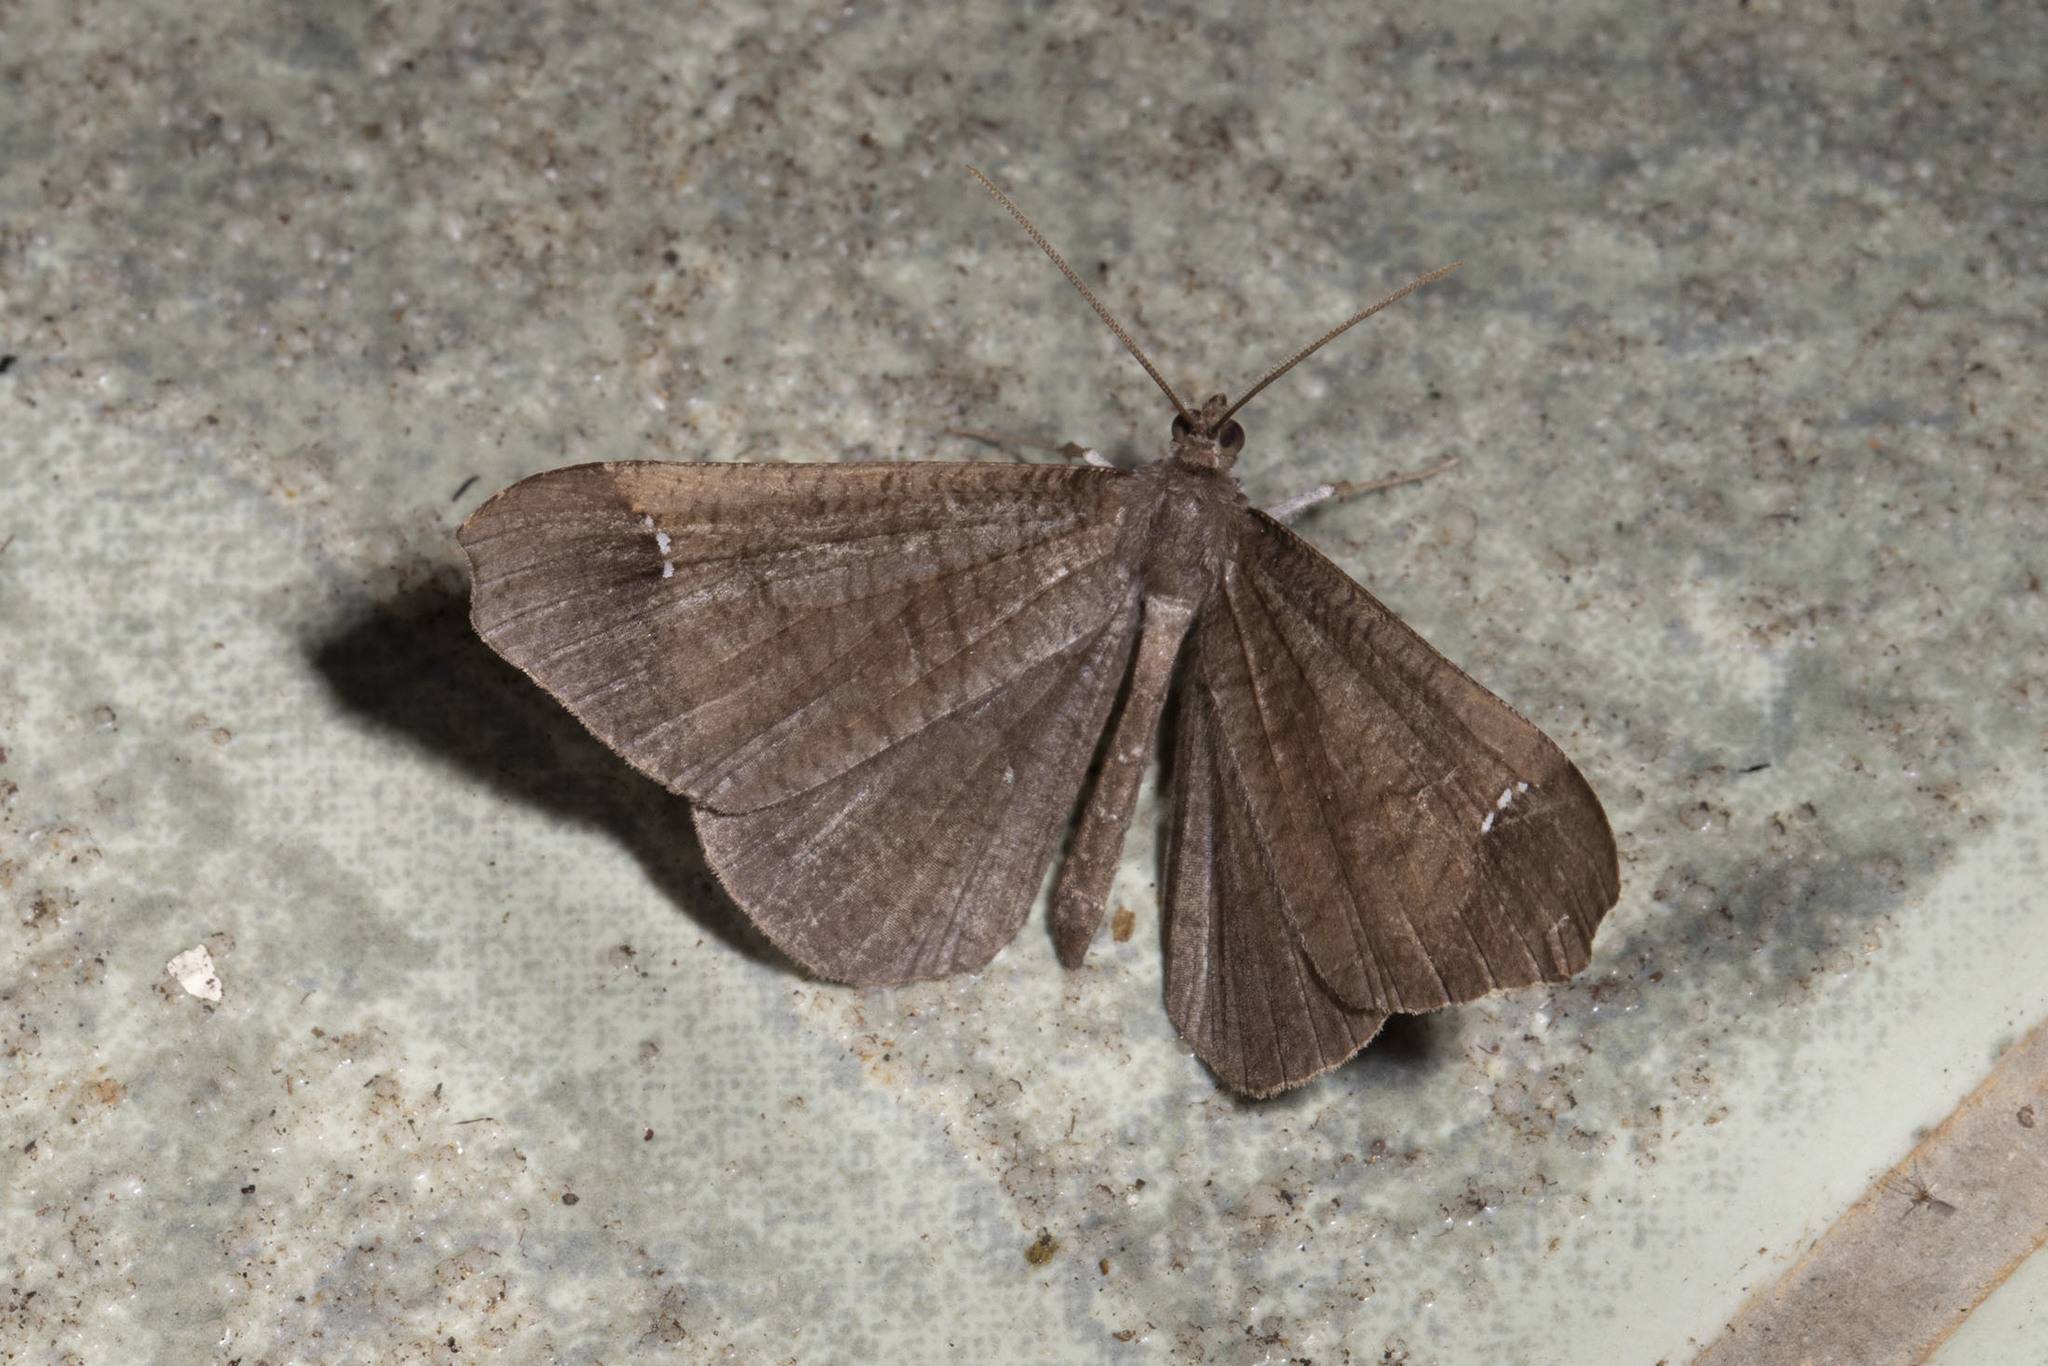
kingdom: Animalia
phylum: Arthropoda
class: Insecta
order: Lepidoptera
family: Hedylidae
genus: Macrosoma
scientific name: Macrosoma stabilinota
